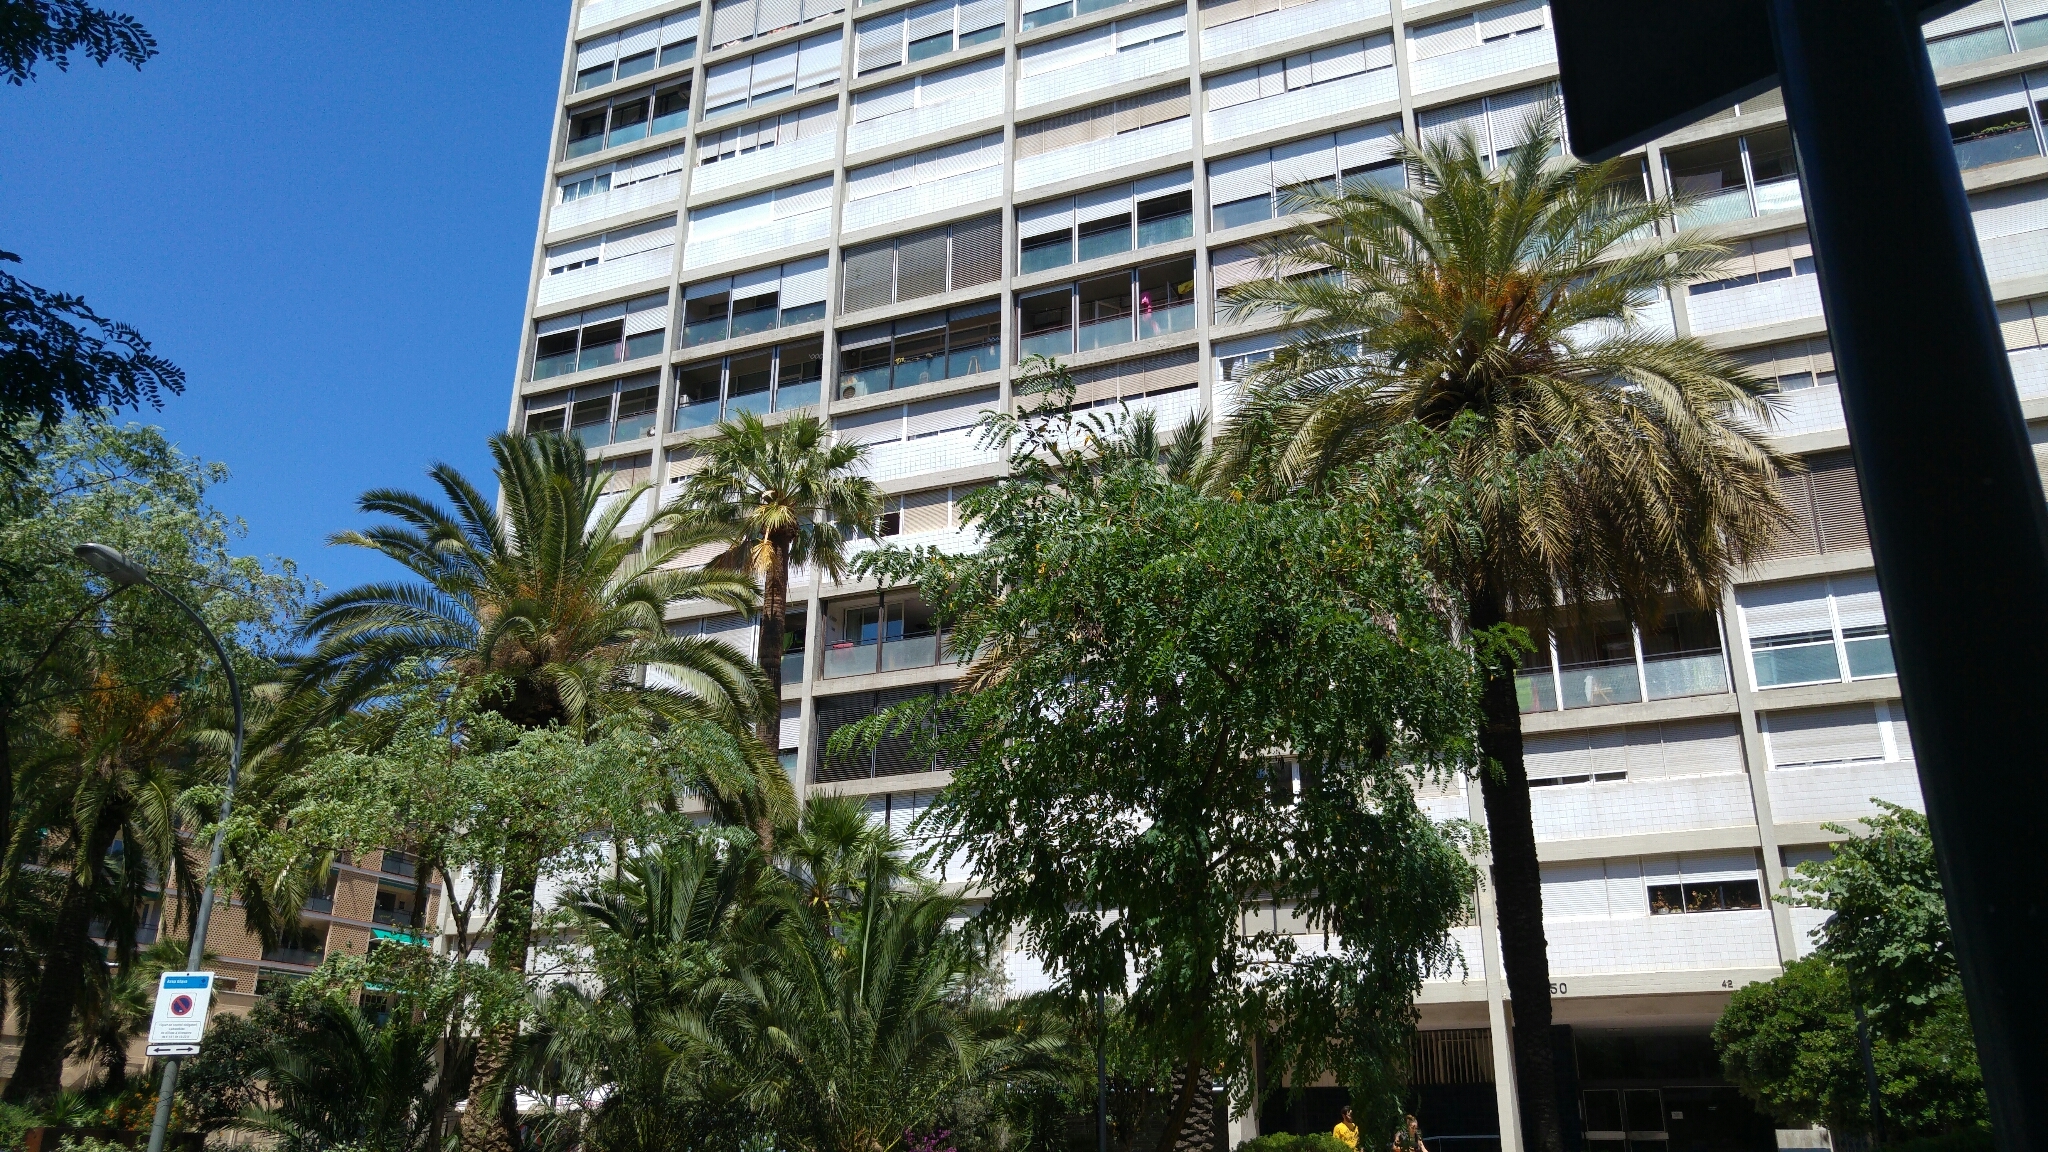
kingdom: Animalia
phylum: Chordata
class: Aves
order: Psittaciformes
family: Psittacidae
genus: Myiopsitta
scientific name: Myiopsitta monachus
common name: Monk parakeet
